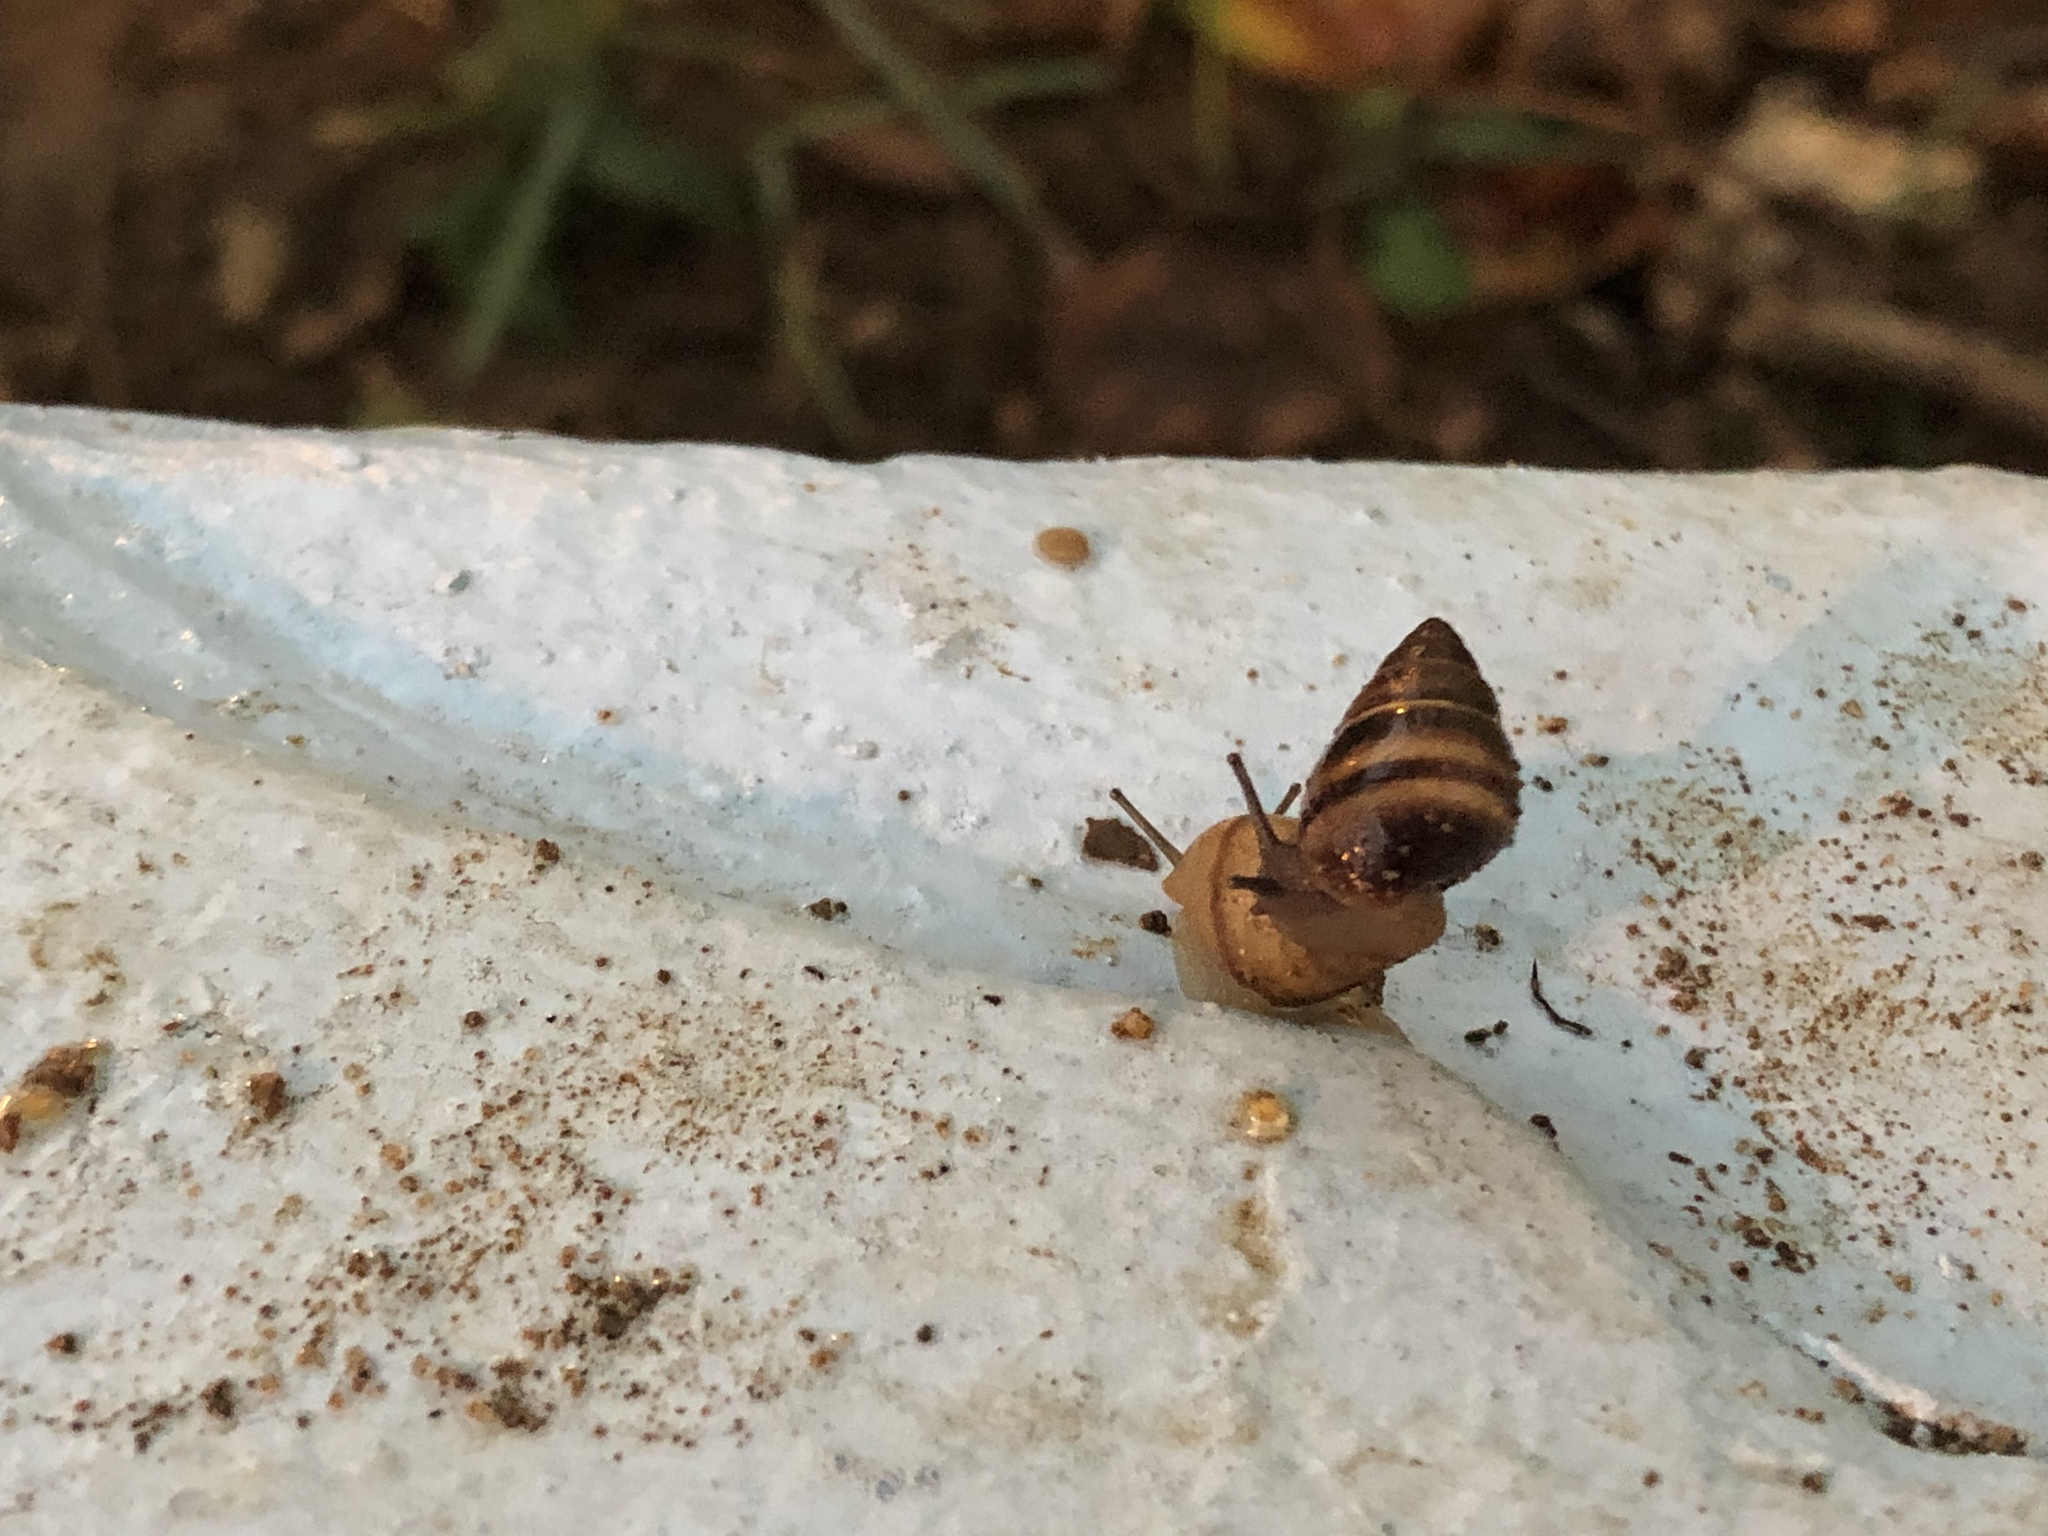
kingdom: Animalia
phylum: Mollusca
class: Gastropoda
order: Stylommatophora
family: Bulimulidae
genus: Bulimulus
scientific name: Bulimulus guadalupensis
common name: West indian bulimulus
